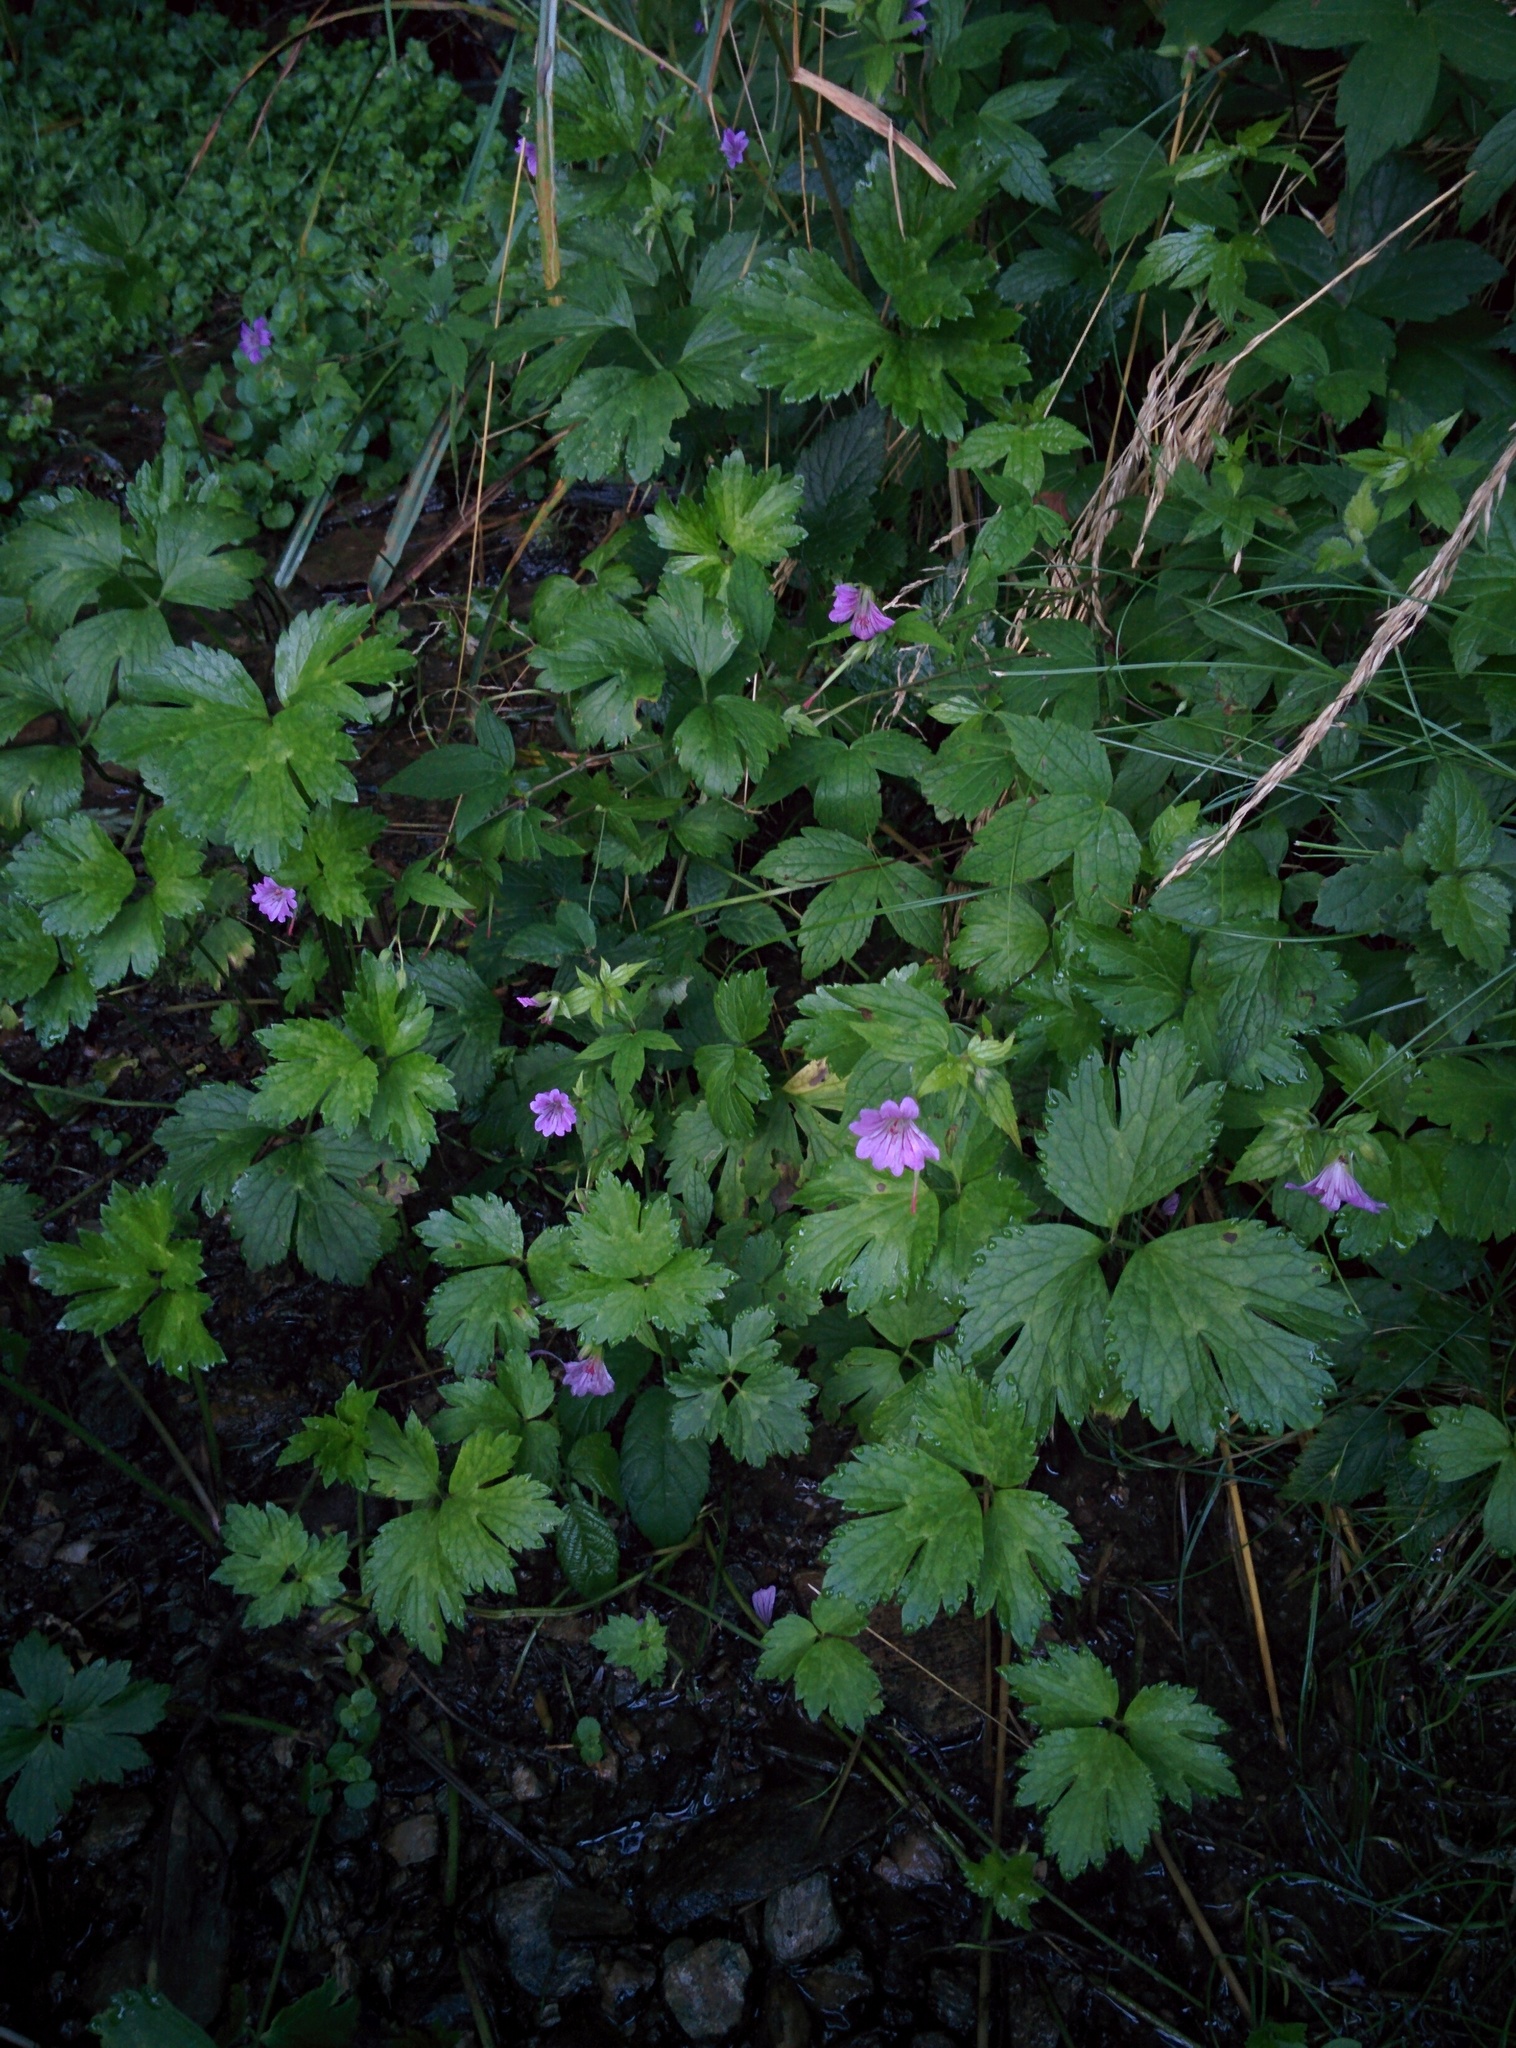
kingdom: Plantae
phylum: Tracheophyta
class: Magnoliopsida
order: Geraniales
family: Geraniaceae
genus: Geranium
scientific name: Geranium nodosum
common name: Knotted crane's-bill
